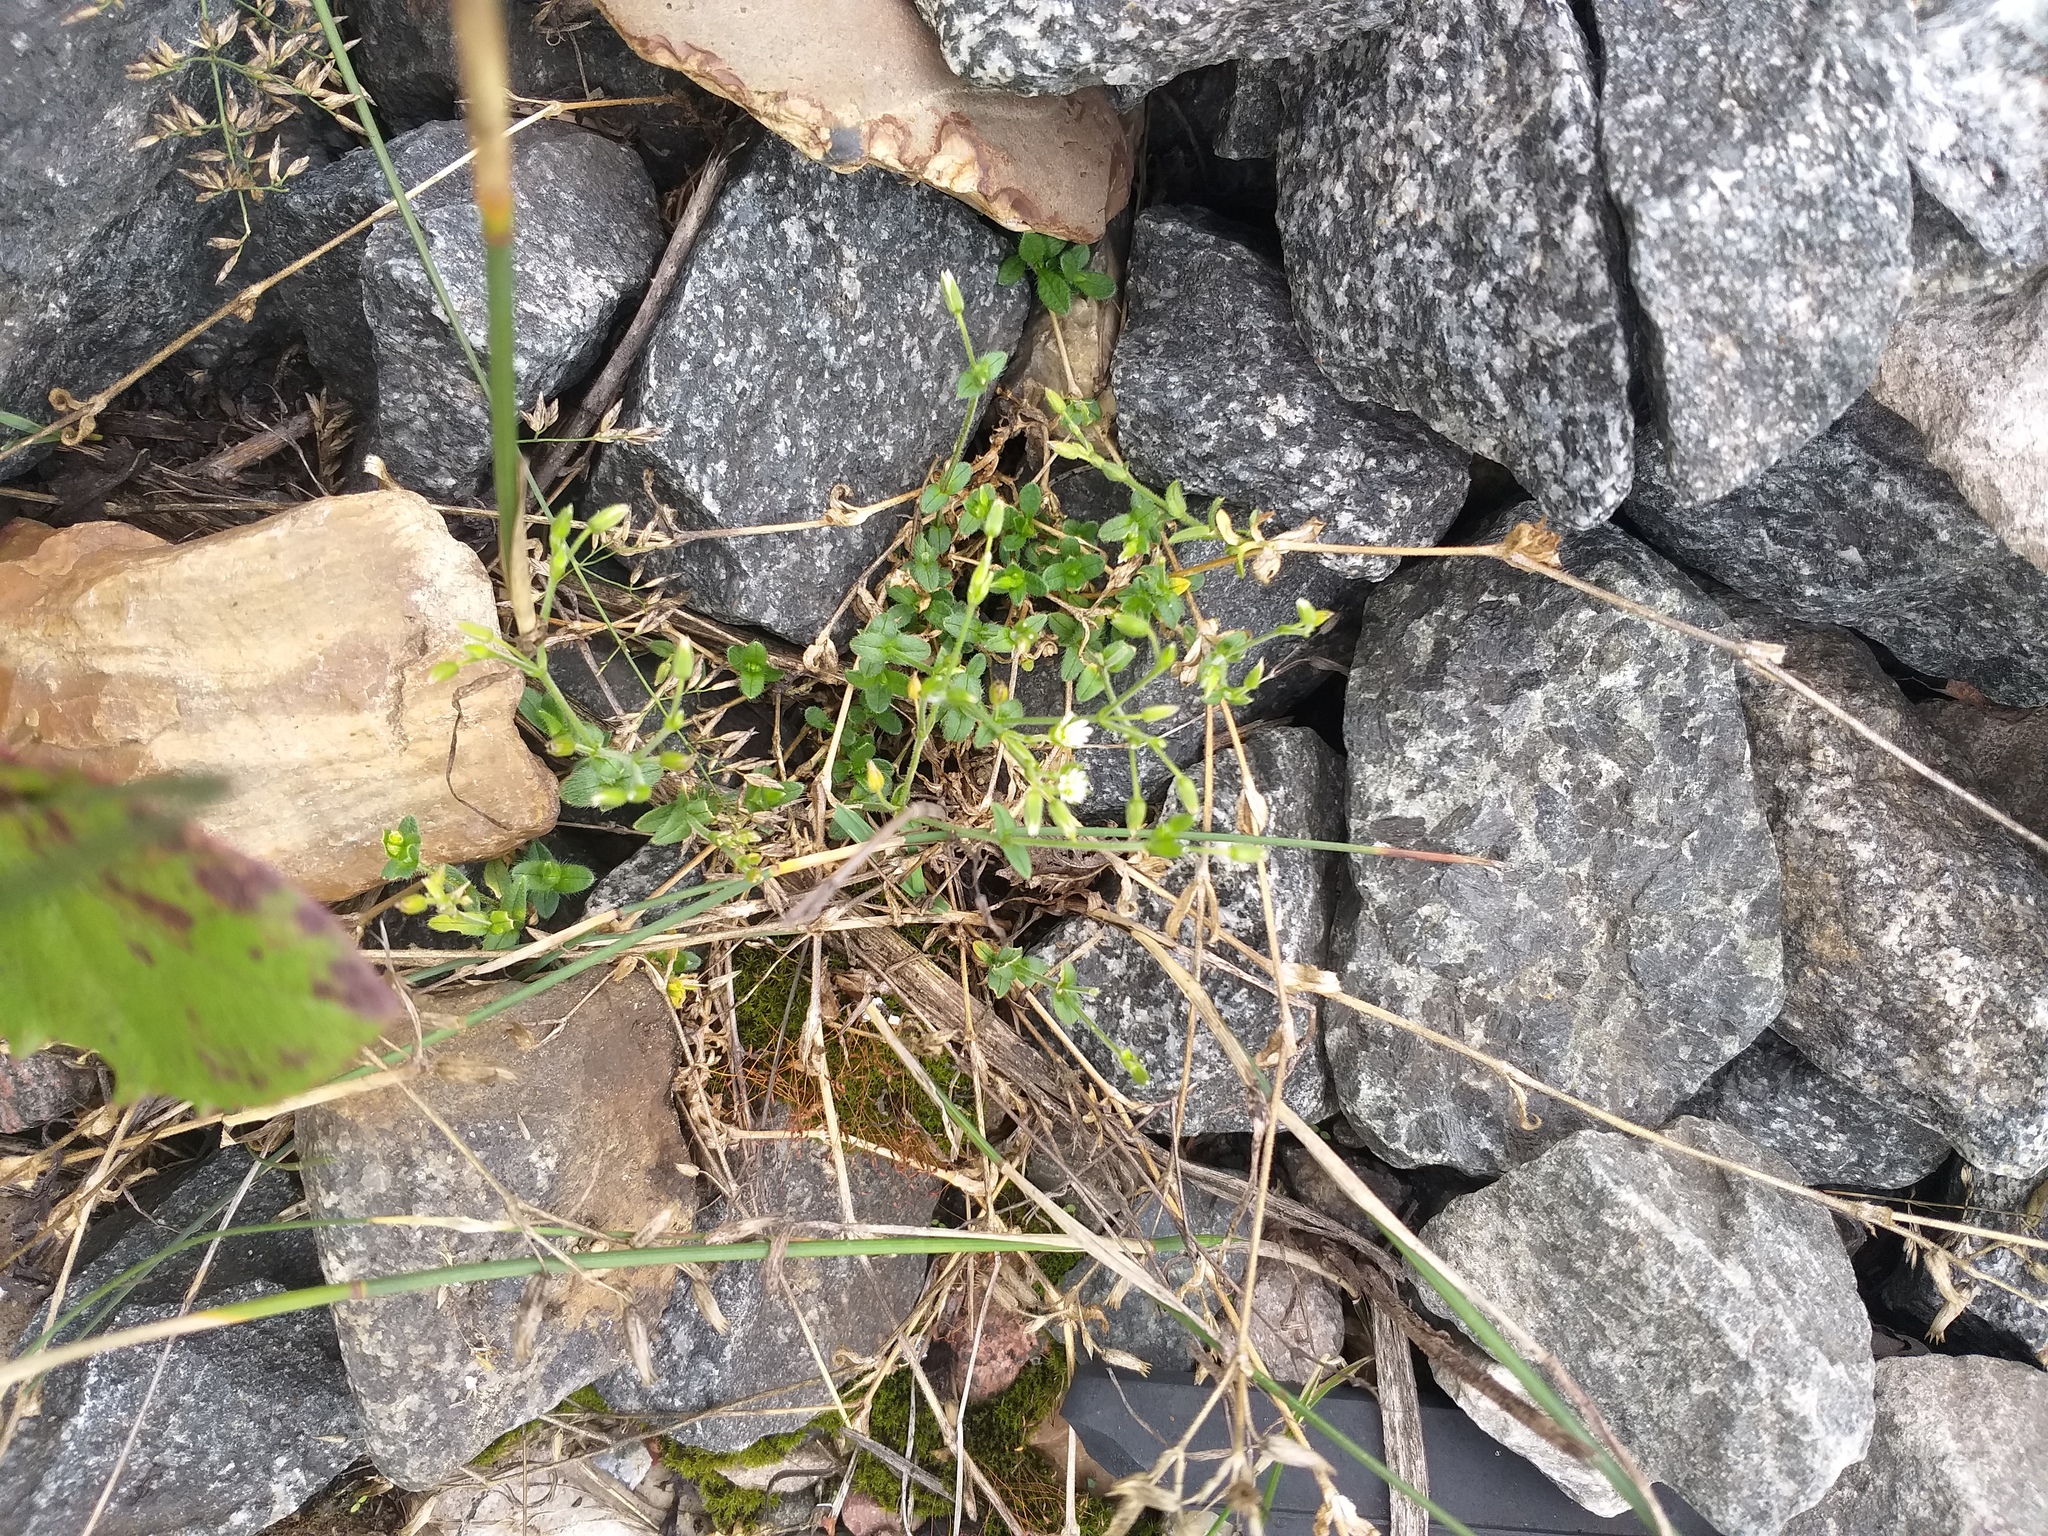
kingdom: Plantae
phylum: Tracheophyta
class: Magnoliopsida
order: Caryophyllales
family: Caryophyllaceae
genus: Cerastium
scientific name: Cerastium holosteoides
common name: Big chickweed
